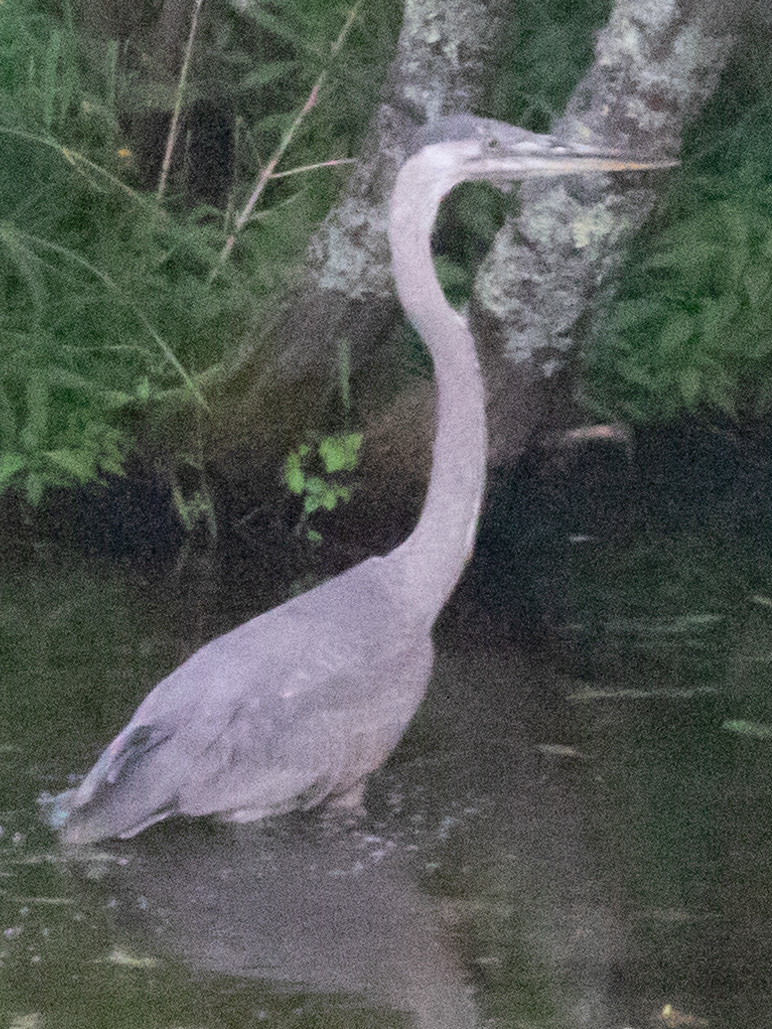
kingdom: Animalia
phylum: Chordata
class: Aves
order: Pelecaniformes
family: Ardeidae
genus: Ardea
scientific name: Ardea herodias
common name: Great blue heron
